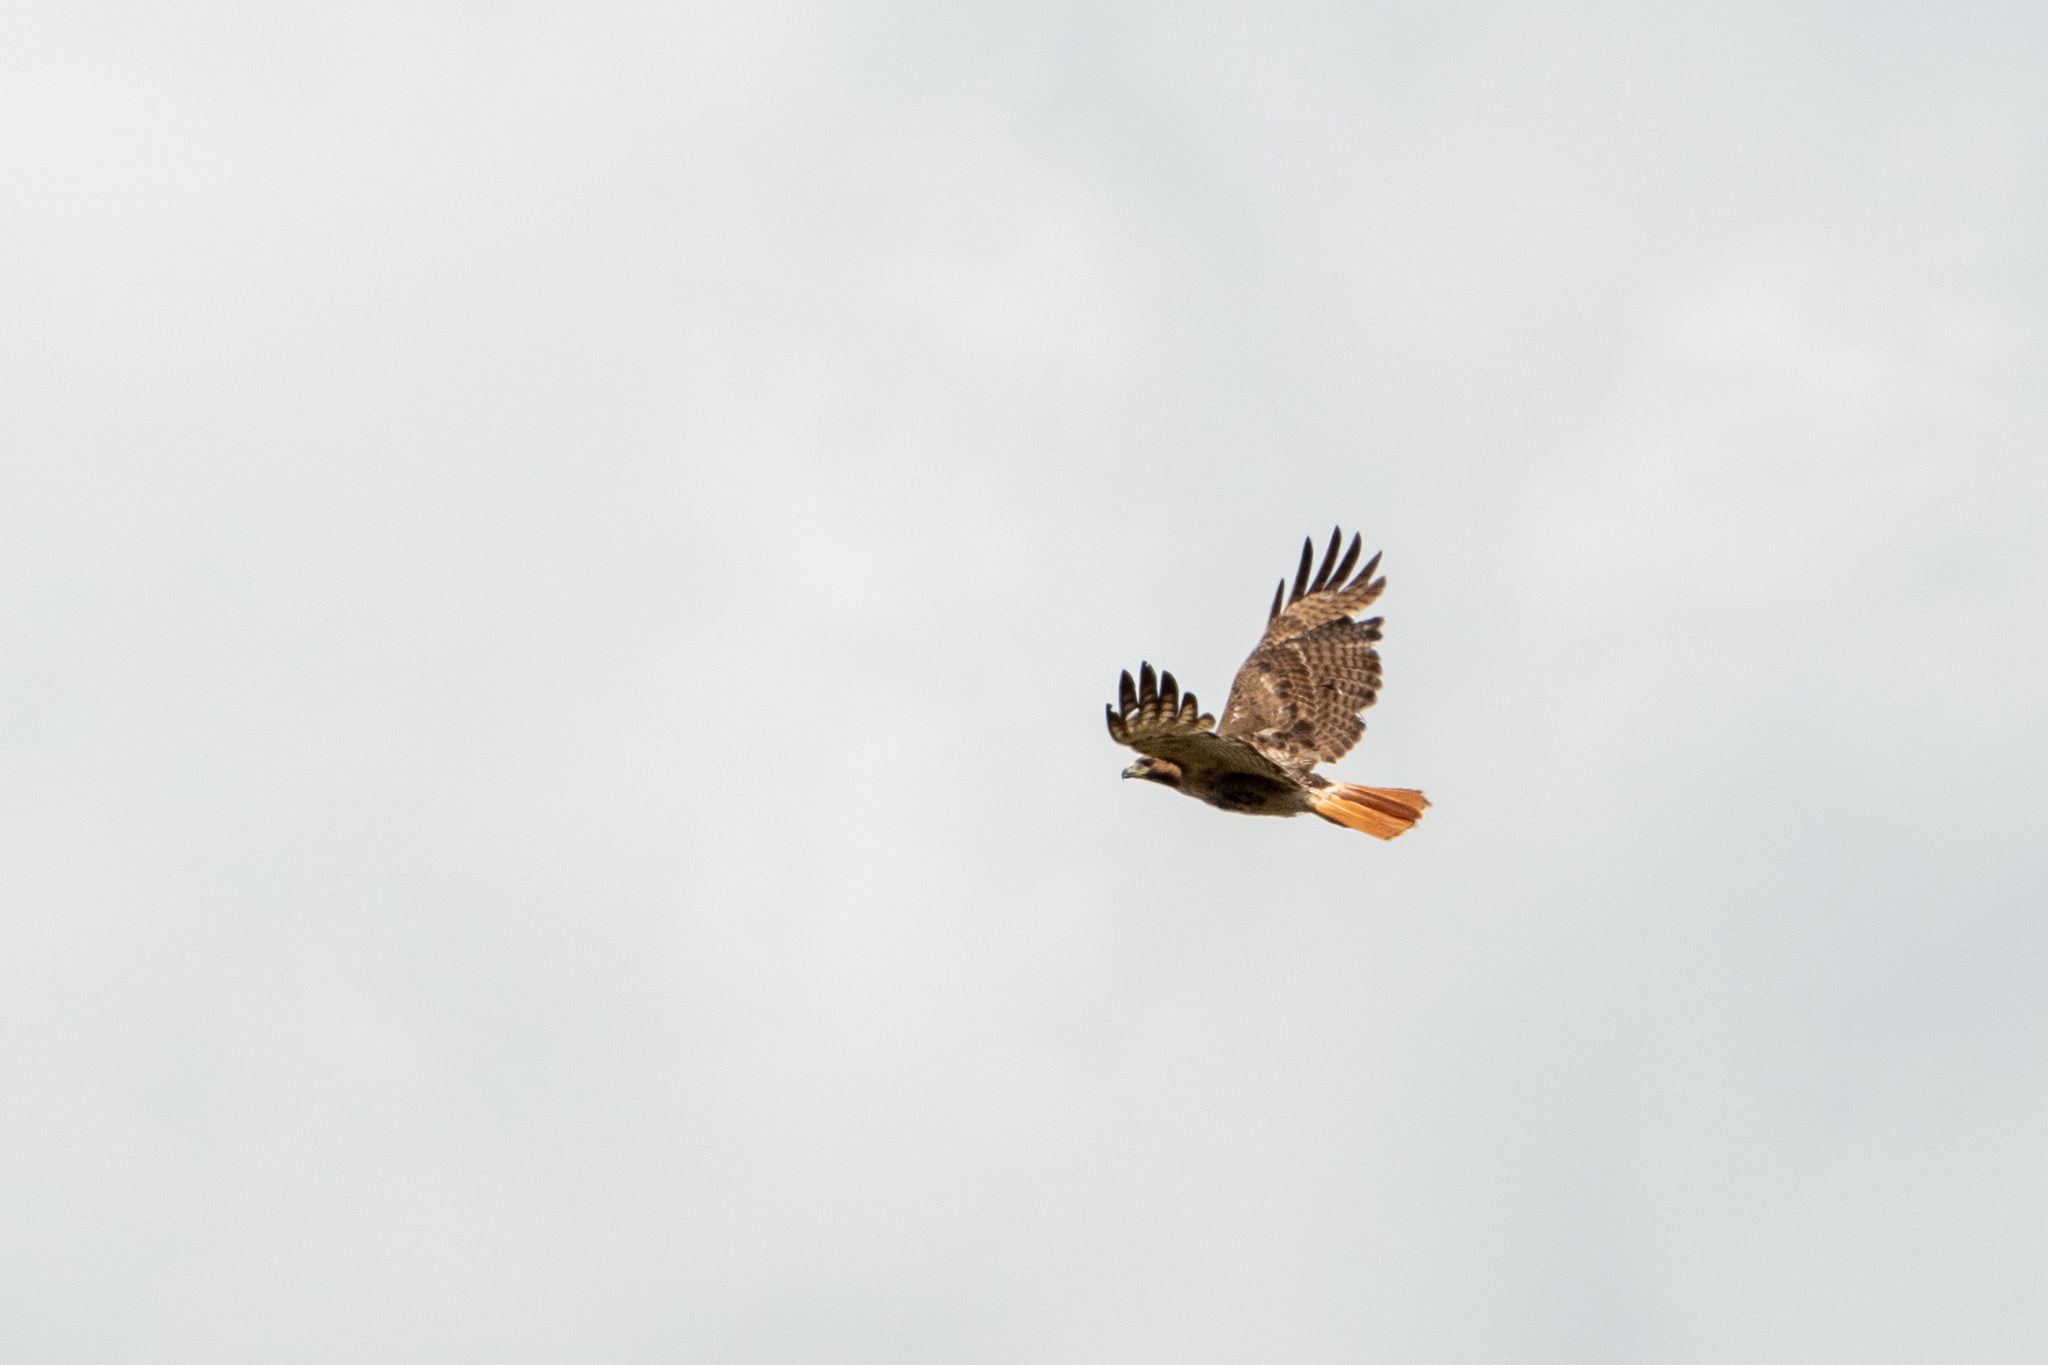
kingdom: Animalia
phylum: Chordata
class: Aves
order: Accipitriformes
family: Accipitridae
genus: Buteo
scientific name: Buteo jamaicensis
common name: Red-tailed hawk
